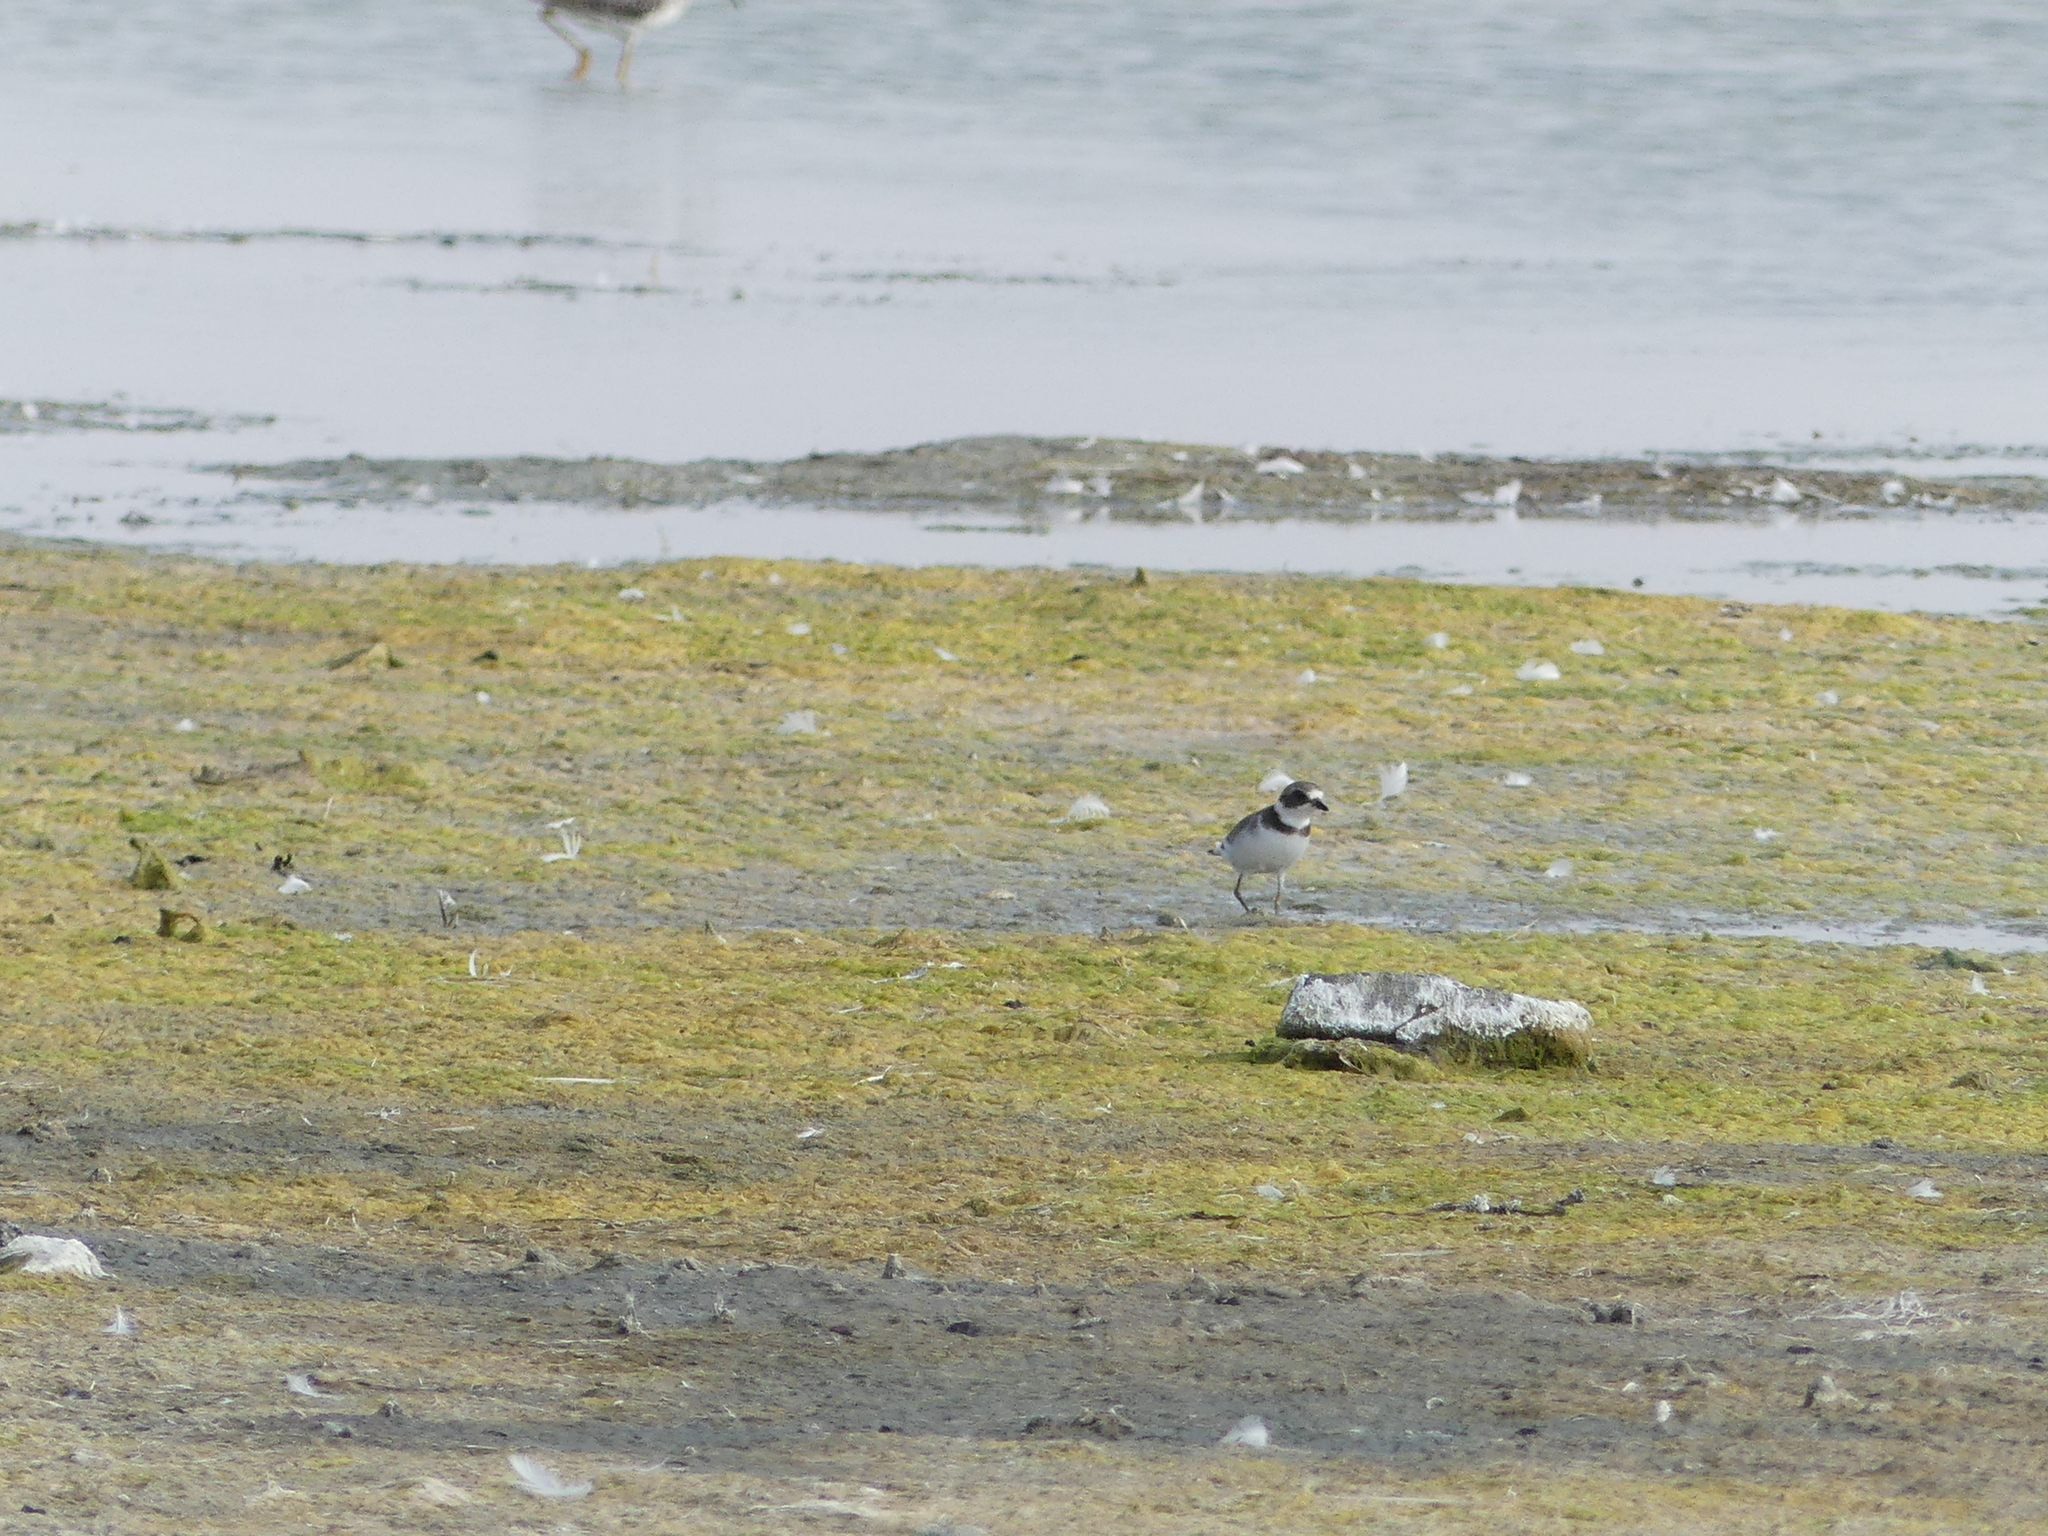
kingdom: Animalia
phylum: Chordata
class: Aves
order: Charadriiformes
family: Charadriidae
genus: Charadrius
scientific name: Charadrius semipalmatus
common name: Semipalmated plover
